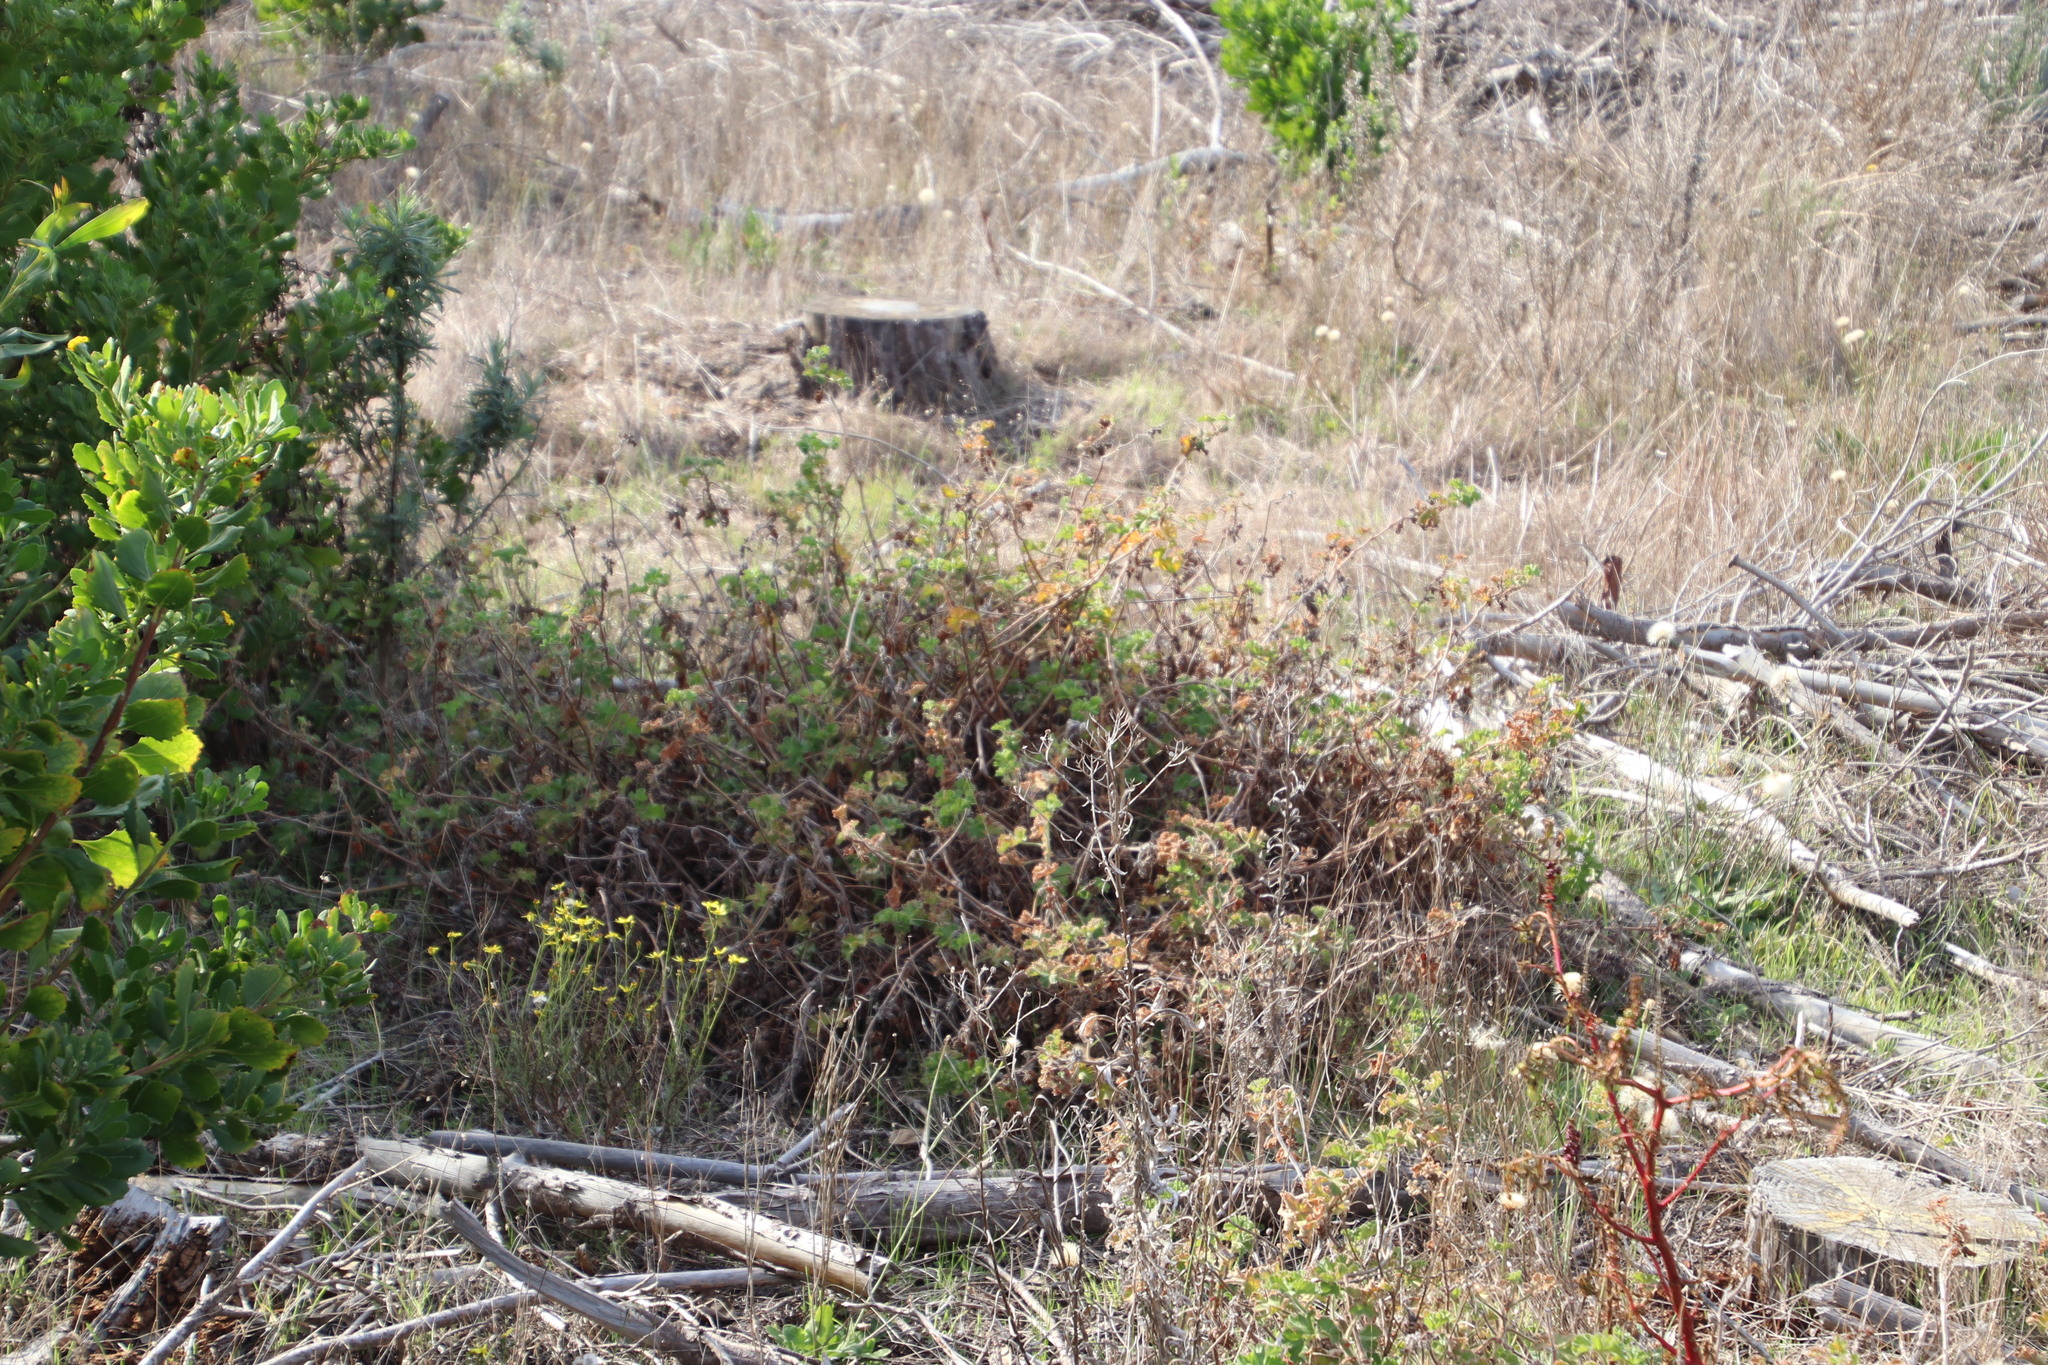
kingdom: Plantae
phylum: Tracheophyta
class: Magnoliopsida
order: Geraniales
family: Geraniaceae
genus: Pelargonium
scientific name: Pelargonium capitatum
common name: Rose scented geranium
